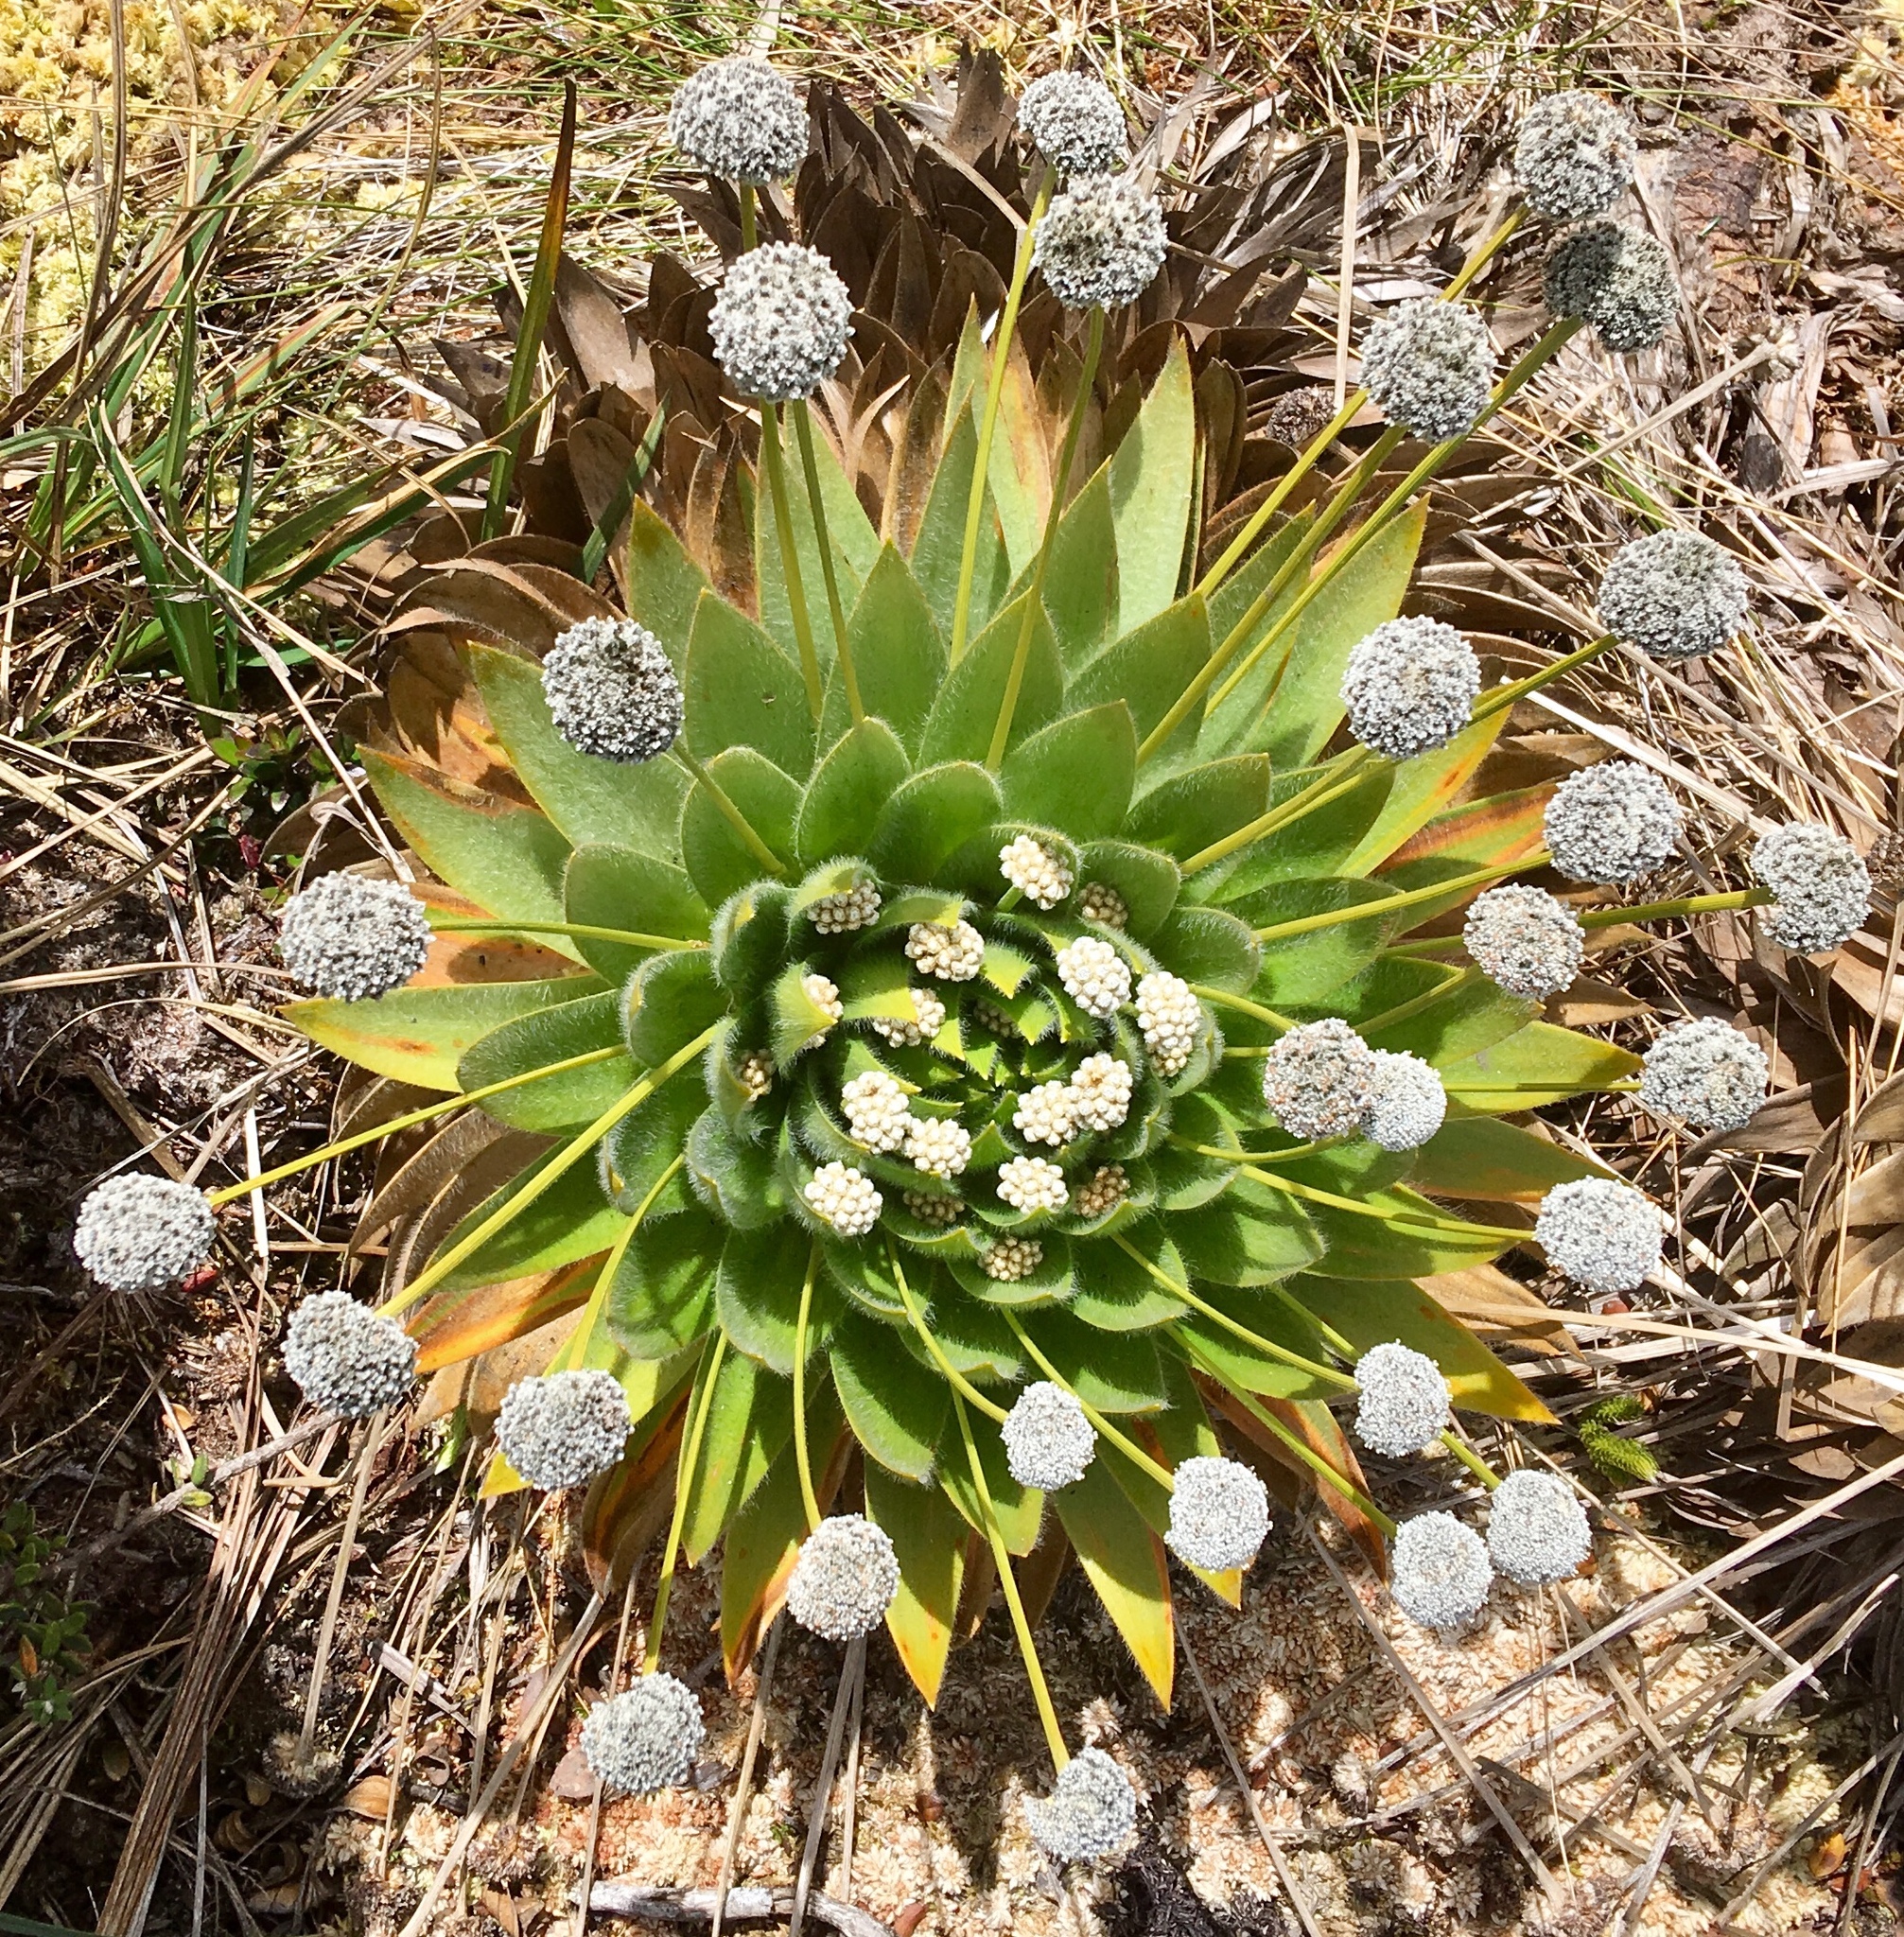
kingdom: Plantae
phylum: Tracheophyta
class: Liliopsida
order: Poales
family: Eriocaulaceae
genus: Paepalanthus
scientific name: Paepalanthus alpinus
